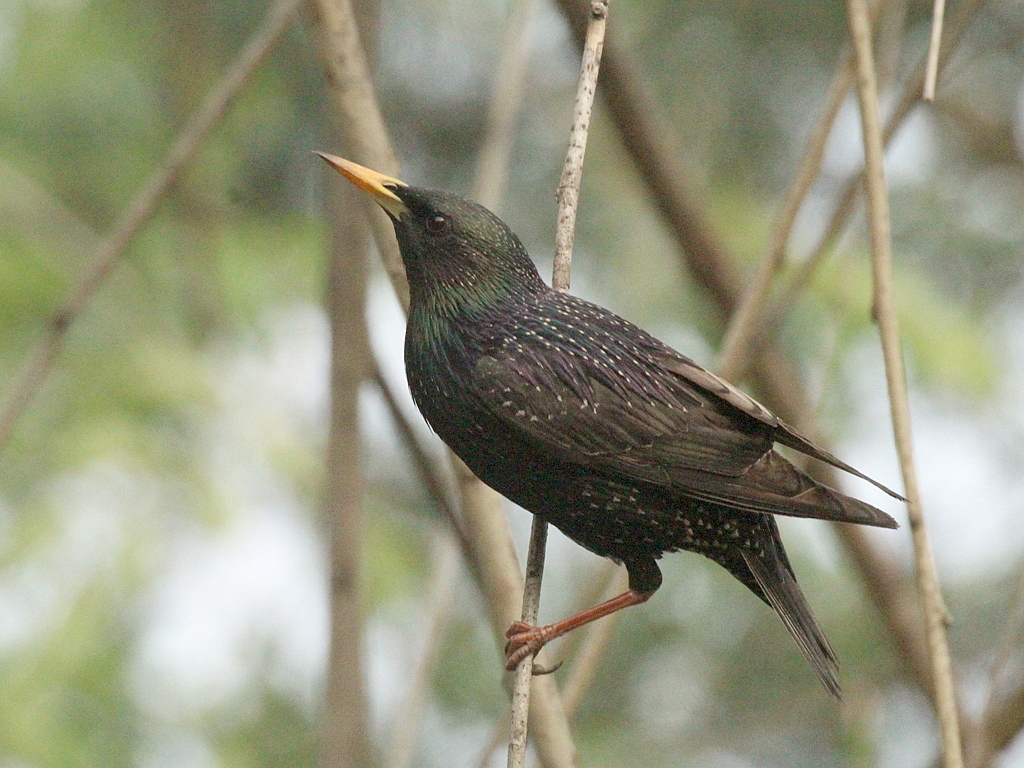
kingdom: Animalia
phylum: Chordata
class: Aves
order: Passeriformes
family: Sturnidae
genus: Sturnus
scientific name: Sturnus vulgaris
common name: Common starling
